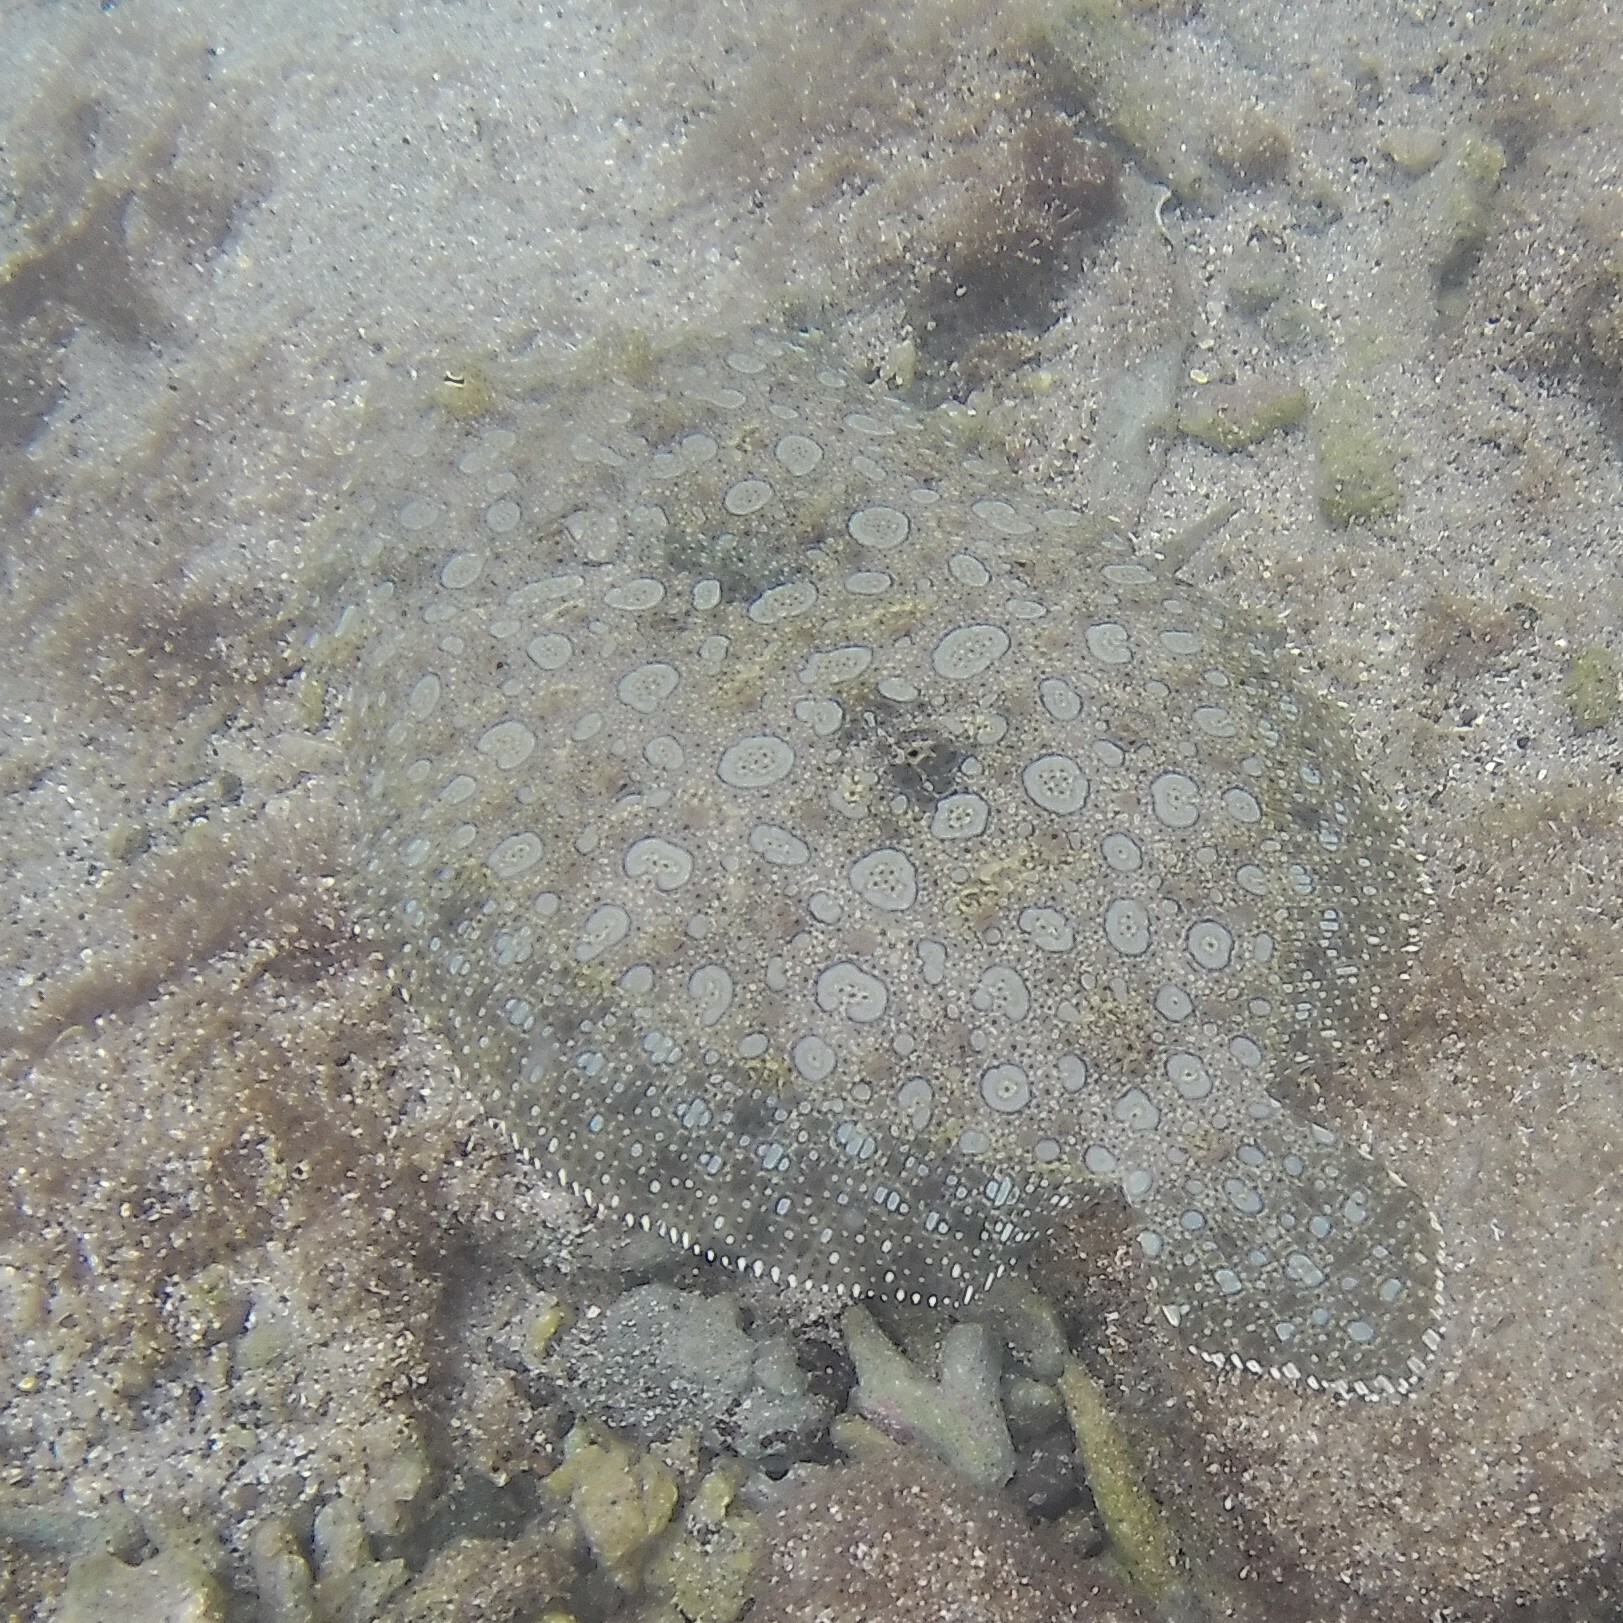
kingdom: Animalia
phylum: Chordata
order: Pleuronectiformes
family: Bothidae
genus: Bothus
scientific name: Bothus mancus
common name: Flowery flounder
